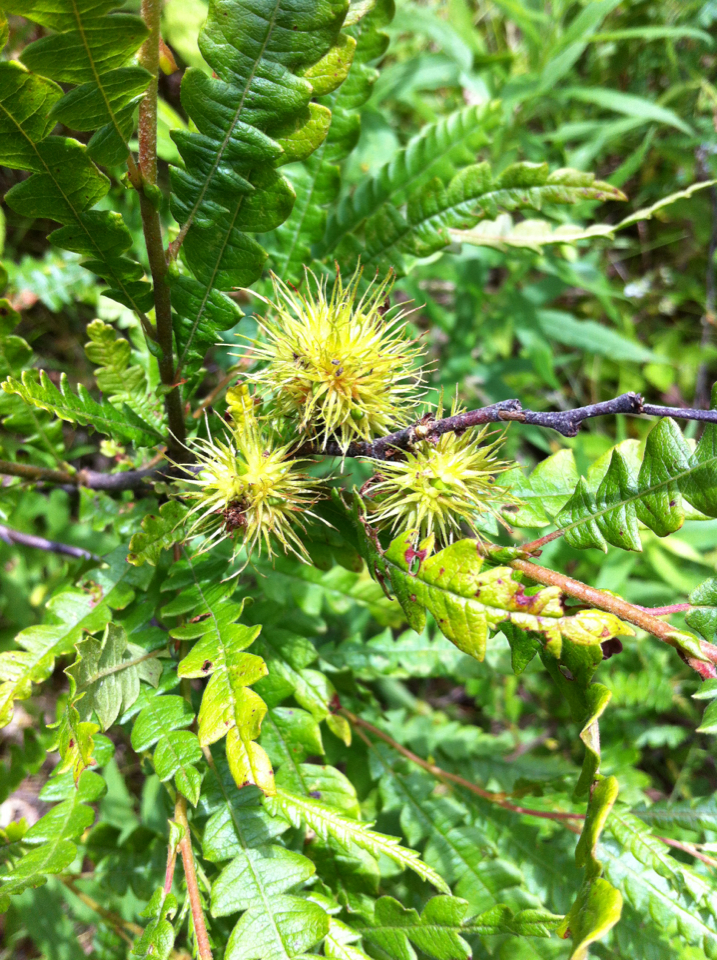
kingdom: Plantae
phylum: Tracheophyta
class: Magnoliopsida
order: Fagales
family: Myricaceae
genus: Comptonia
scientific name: Comptonia peregrina
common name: Sweet-fern
